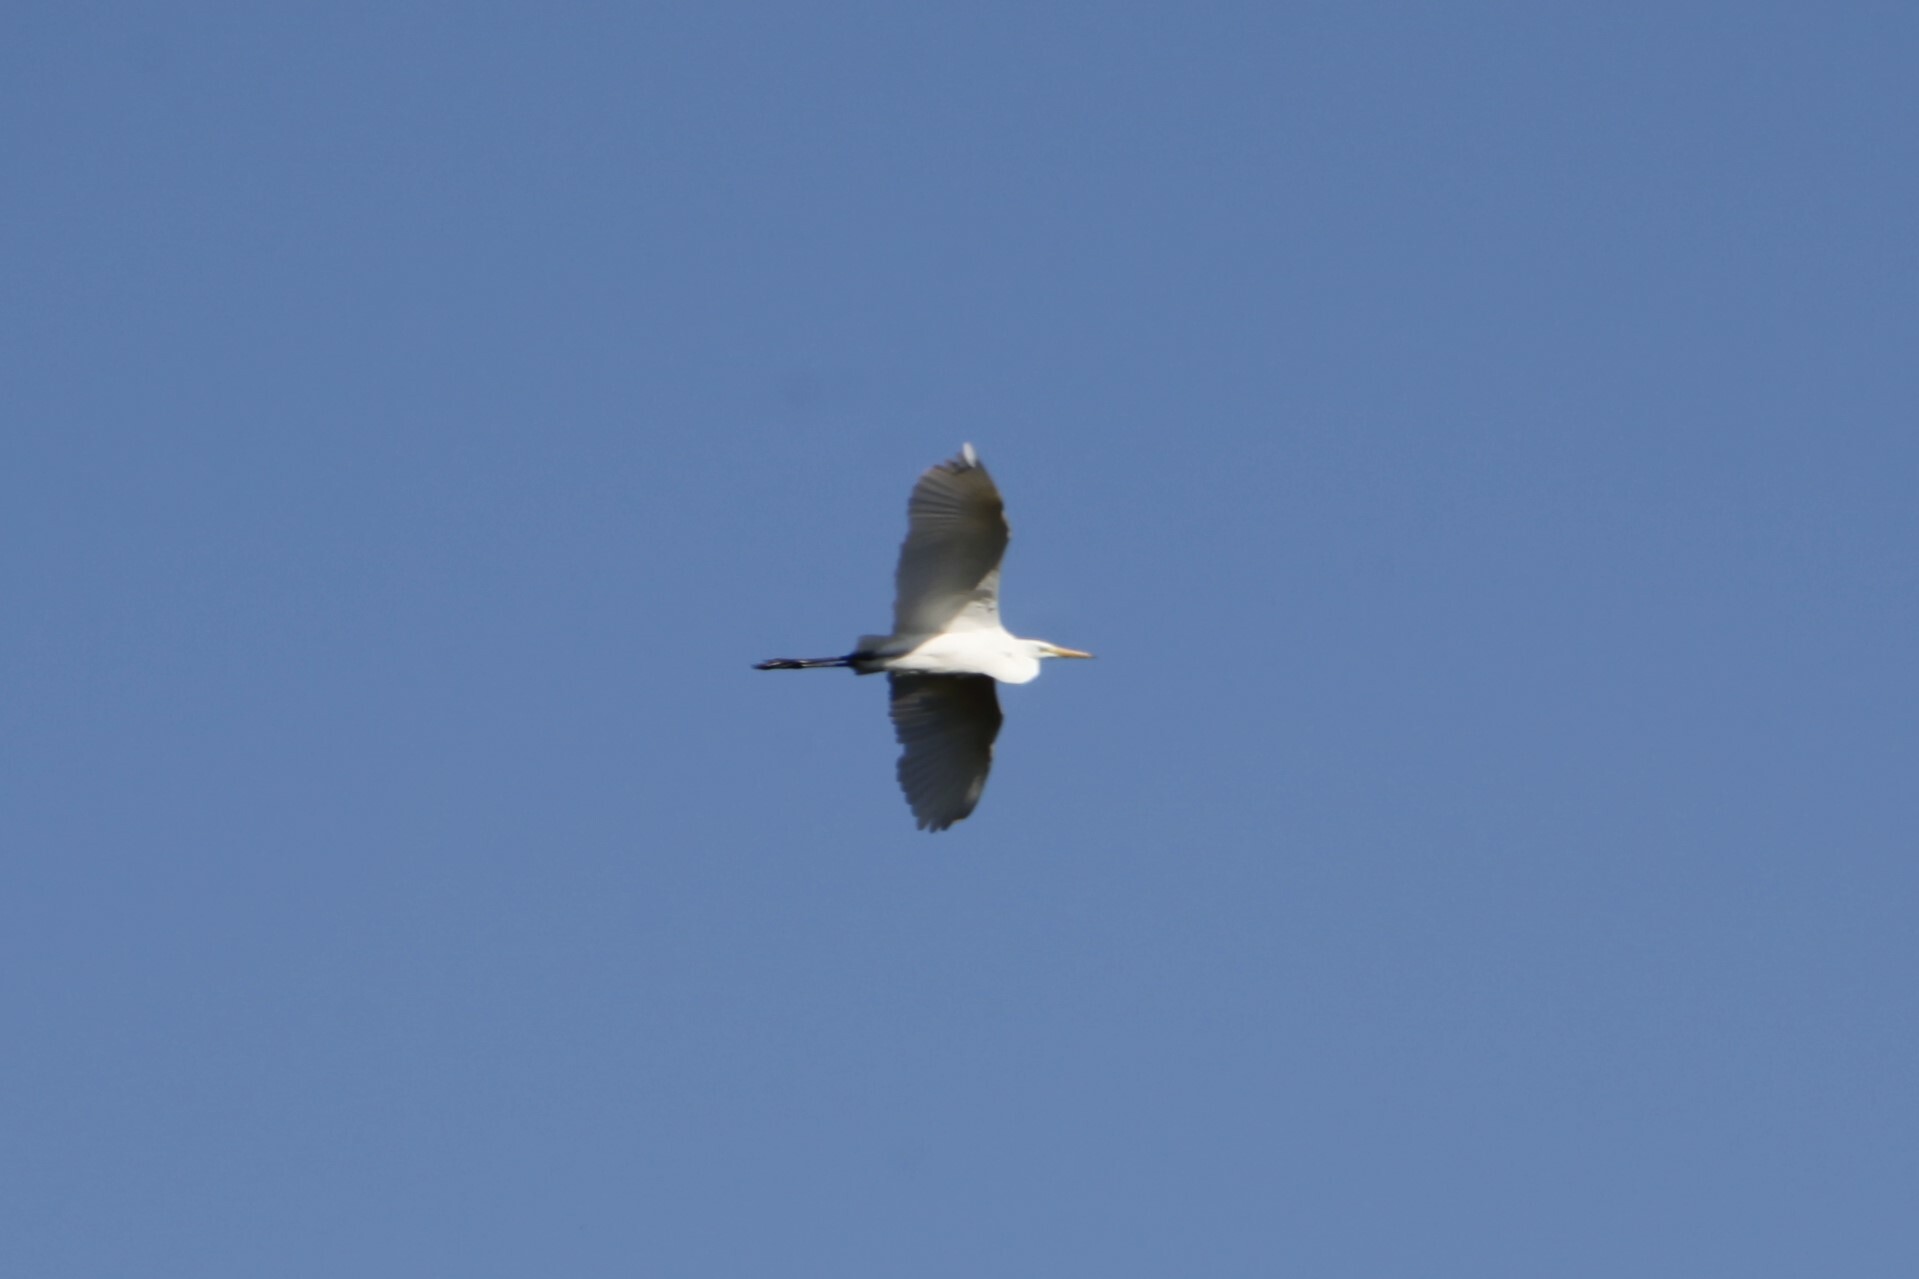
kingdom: Animalia
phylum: Chordata
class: Aves
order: Pelecaniformes
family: Ardeidae
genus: Ardea
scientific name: Ardea alba
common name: Great egret
